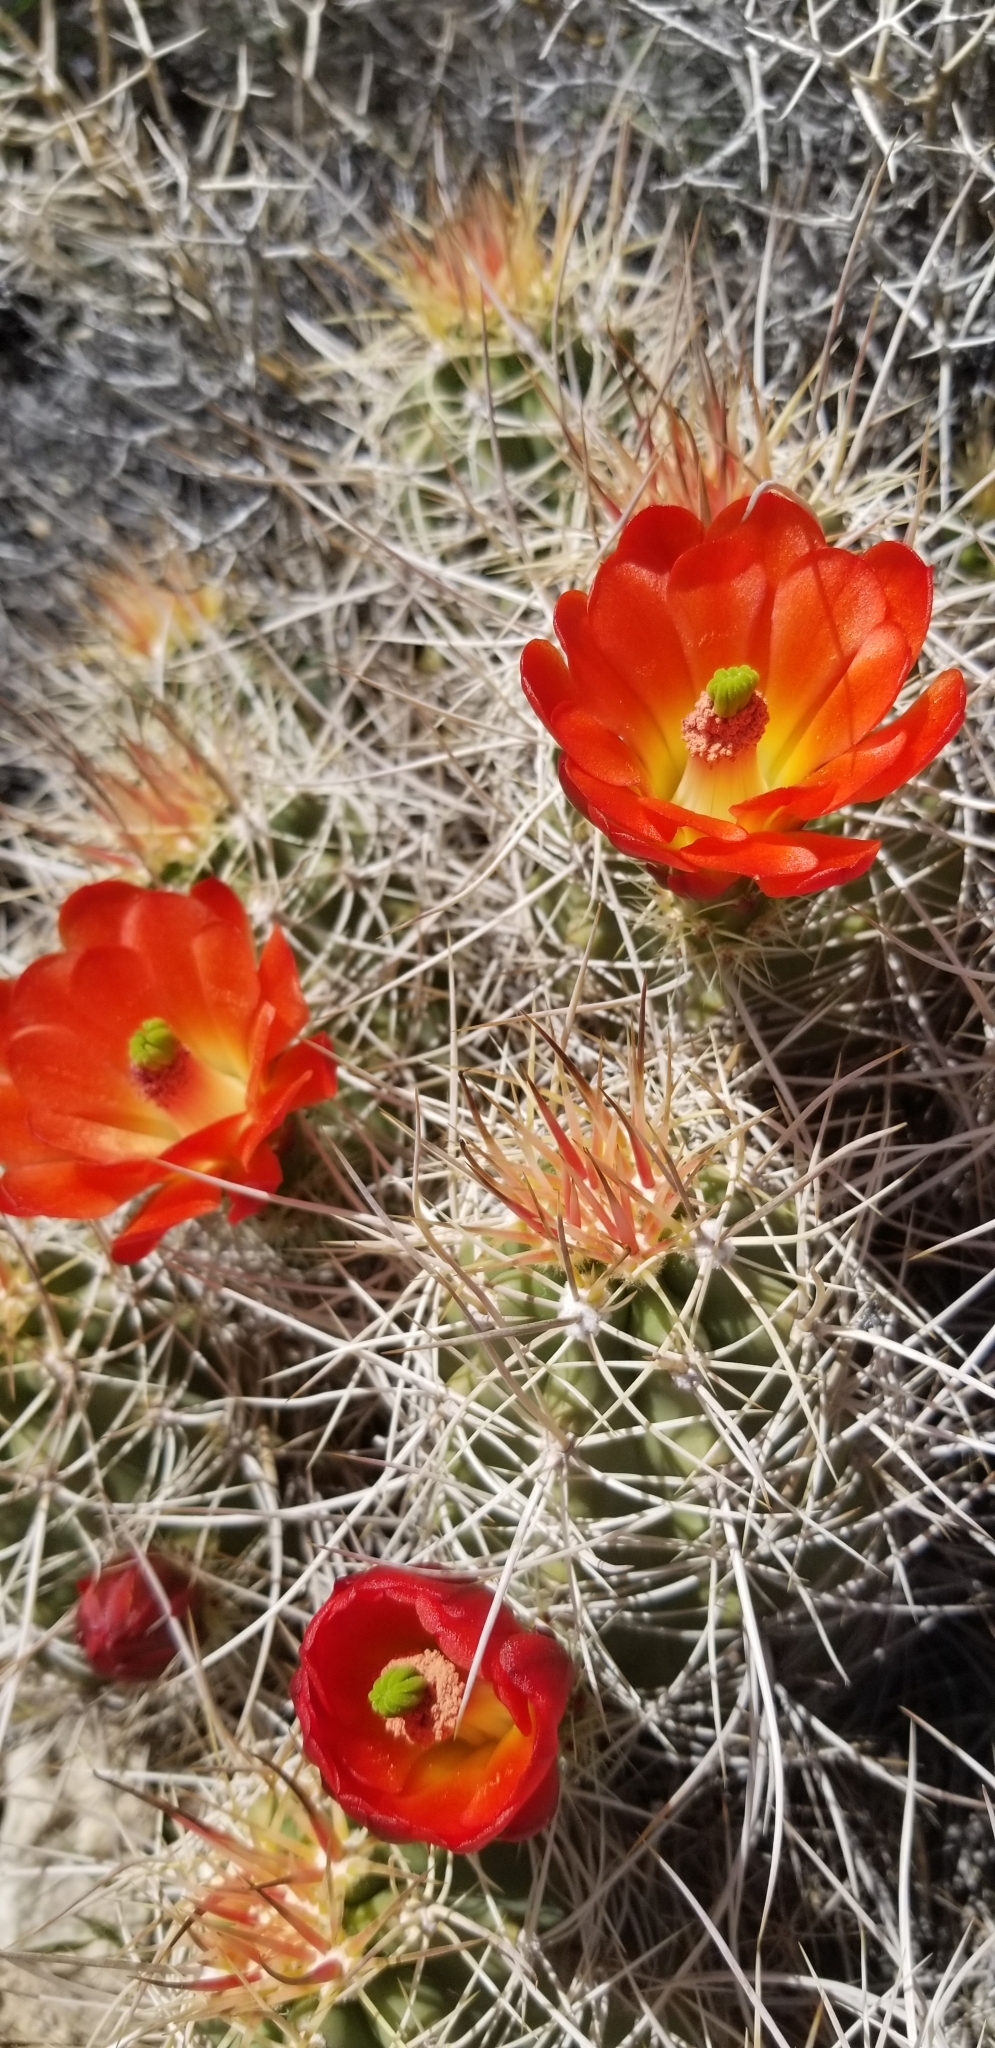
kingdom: Plantae
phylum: Tracheophyta
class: Magnoliopsida
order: Caryophyllales
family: Cactaceae
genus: Echinocereus
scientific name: Echinocereus triglochidiatus
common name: Claretcup hedgehog
